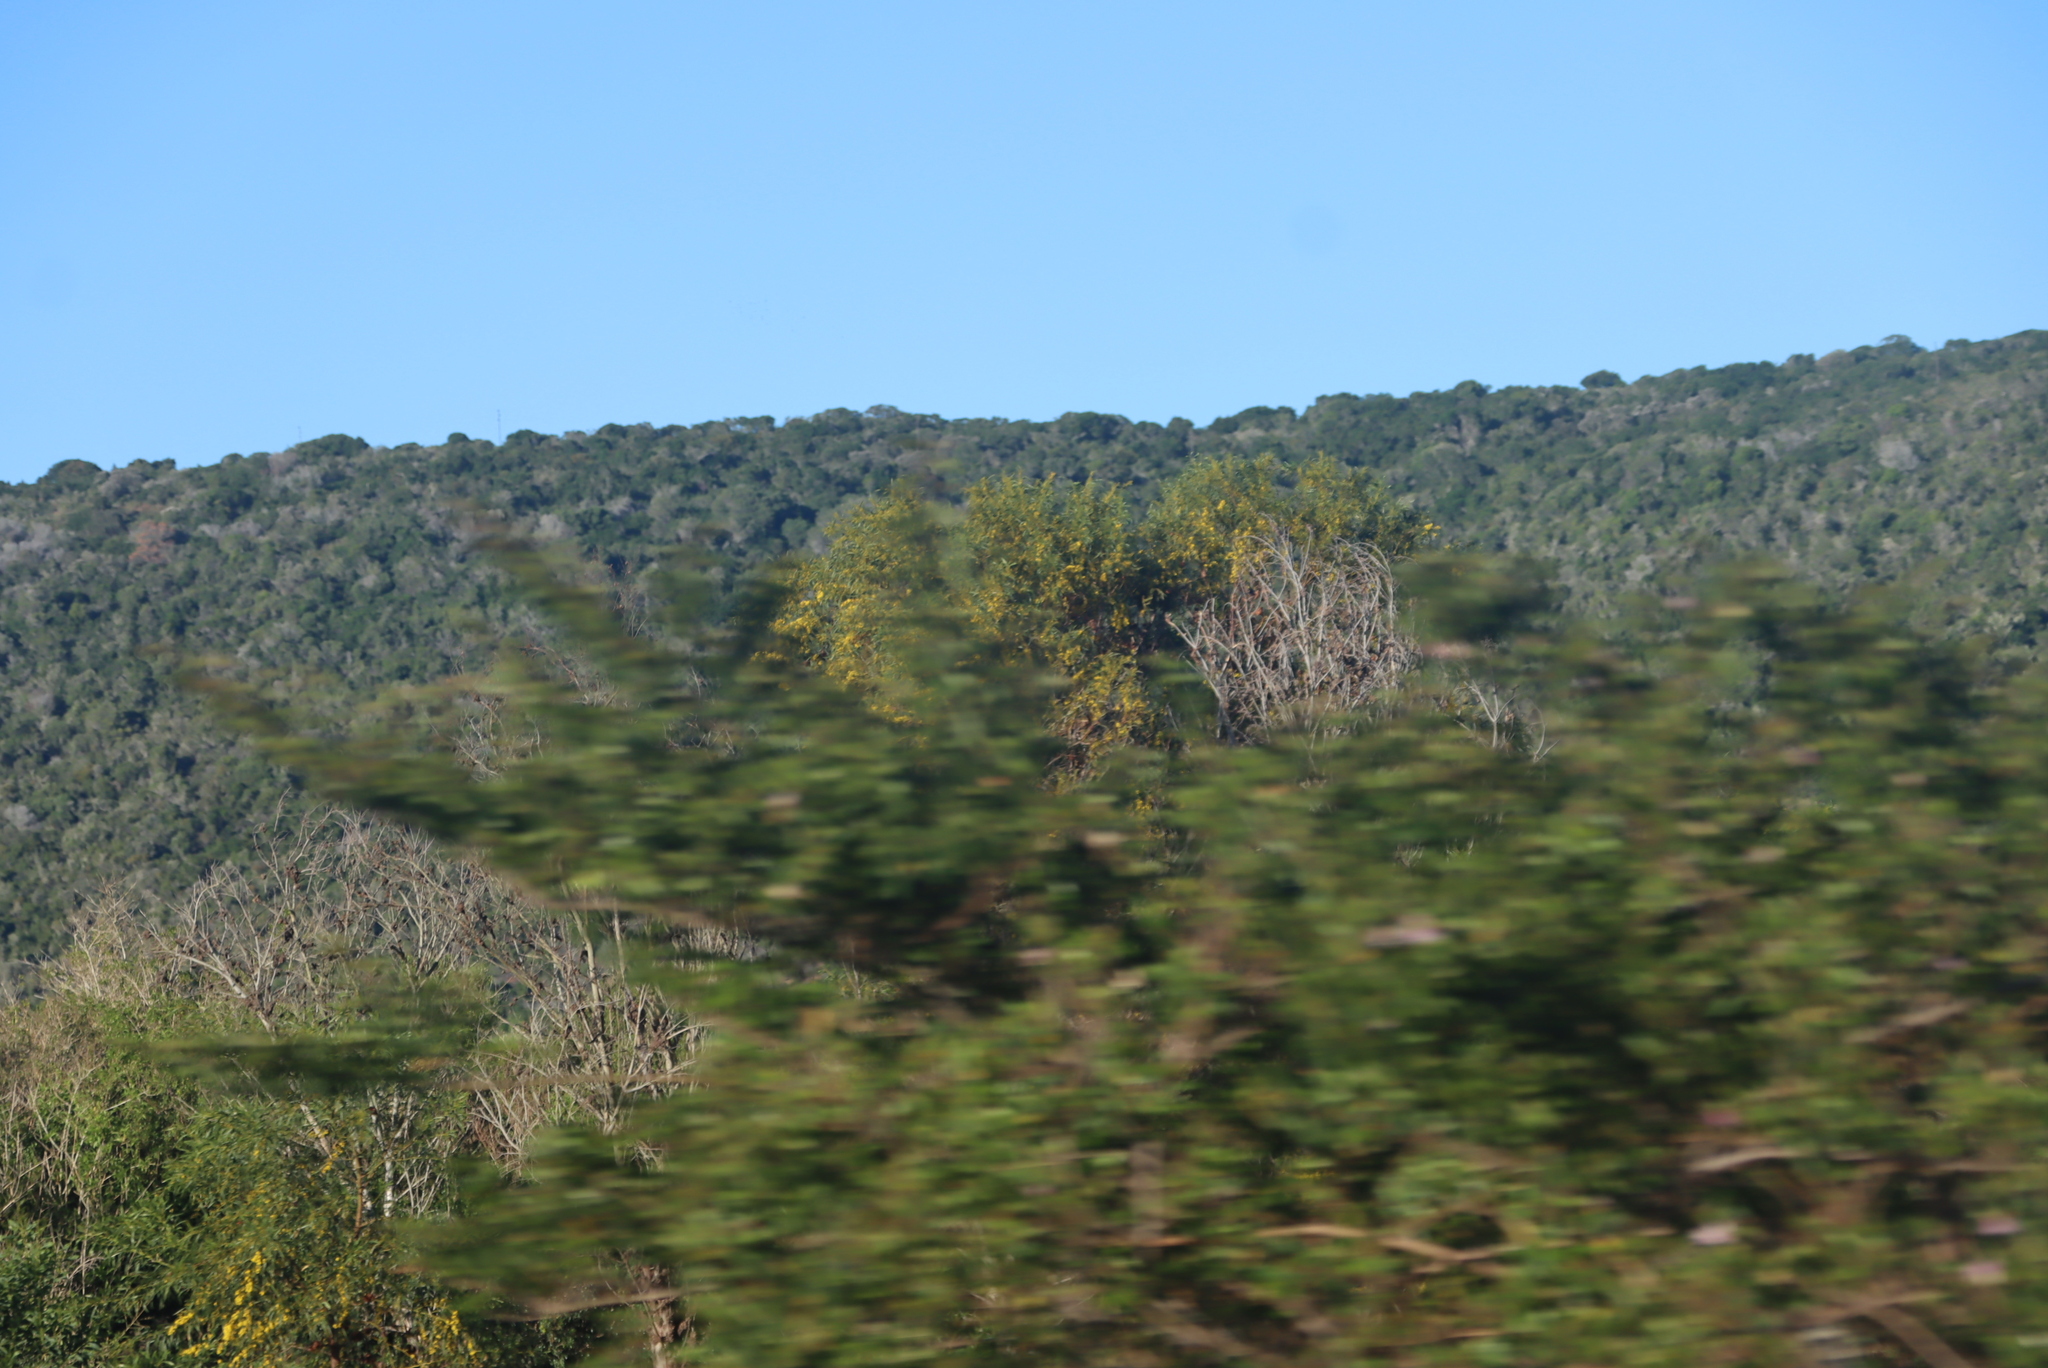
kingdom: Plantae
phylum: Tracheophyta
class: Magnoliopsida
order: Fabales
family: Fabaceae
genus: Acacia
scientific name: Acacia saligna
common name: Orange wattle
